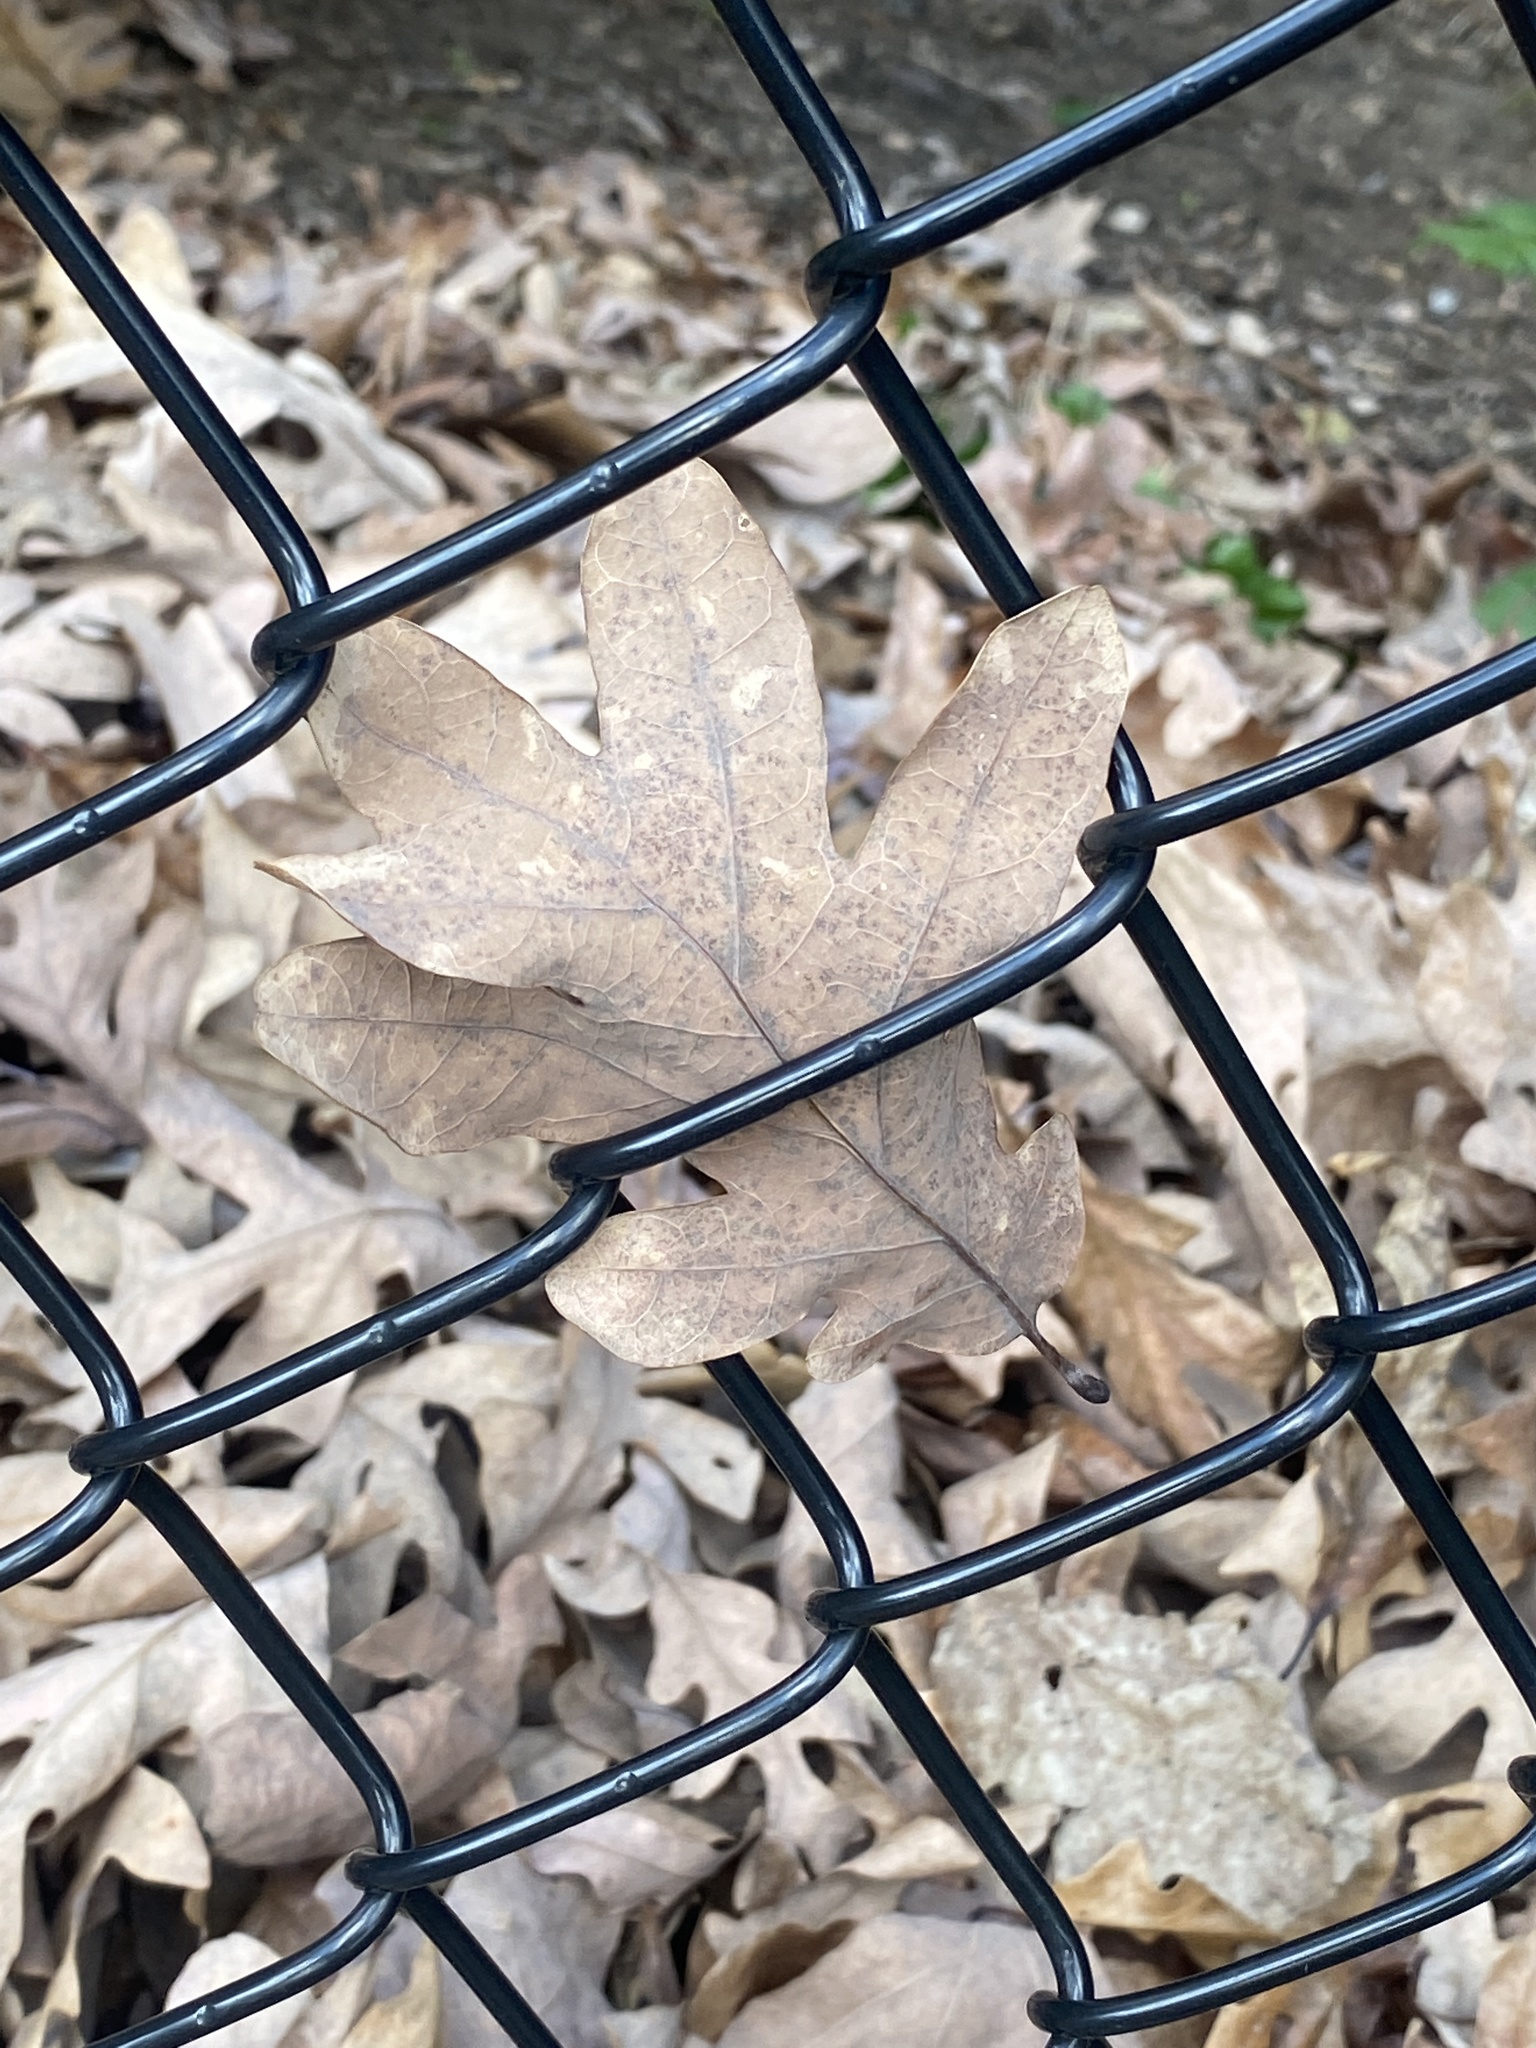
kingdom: Plantae
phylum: Tracheophyta
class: Magnoliopsida
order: Fagales
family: Fagaceae
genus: Quercus
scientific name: Quercus alba
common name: White oak
